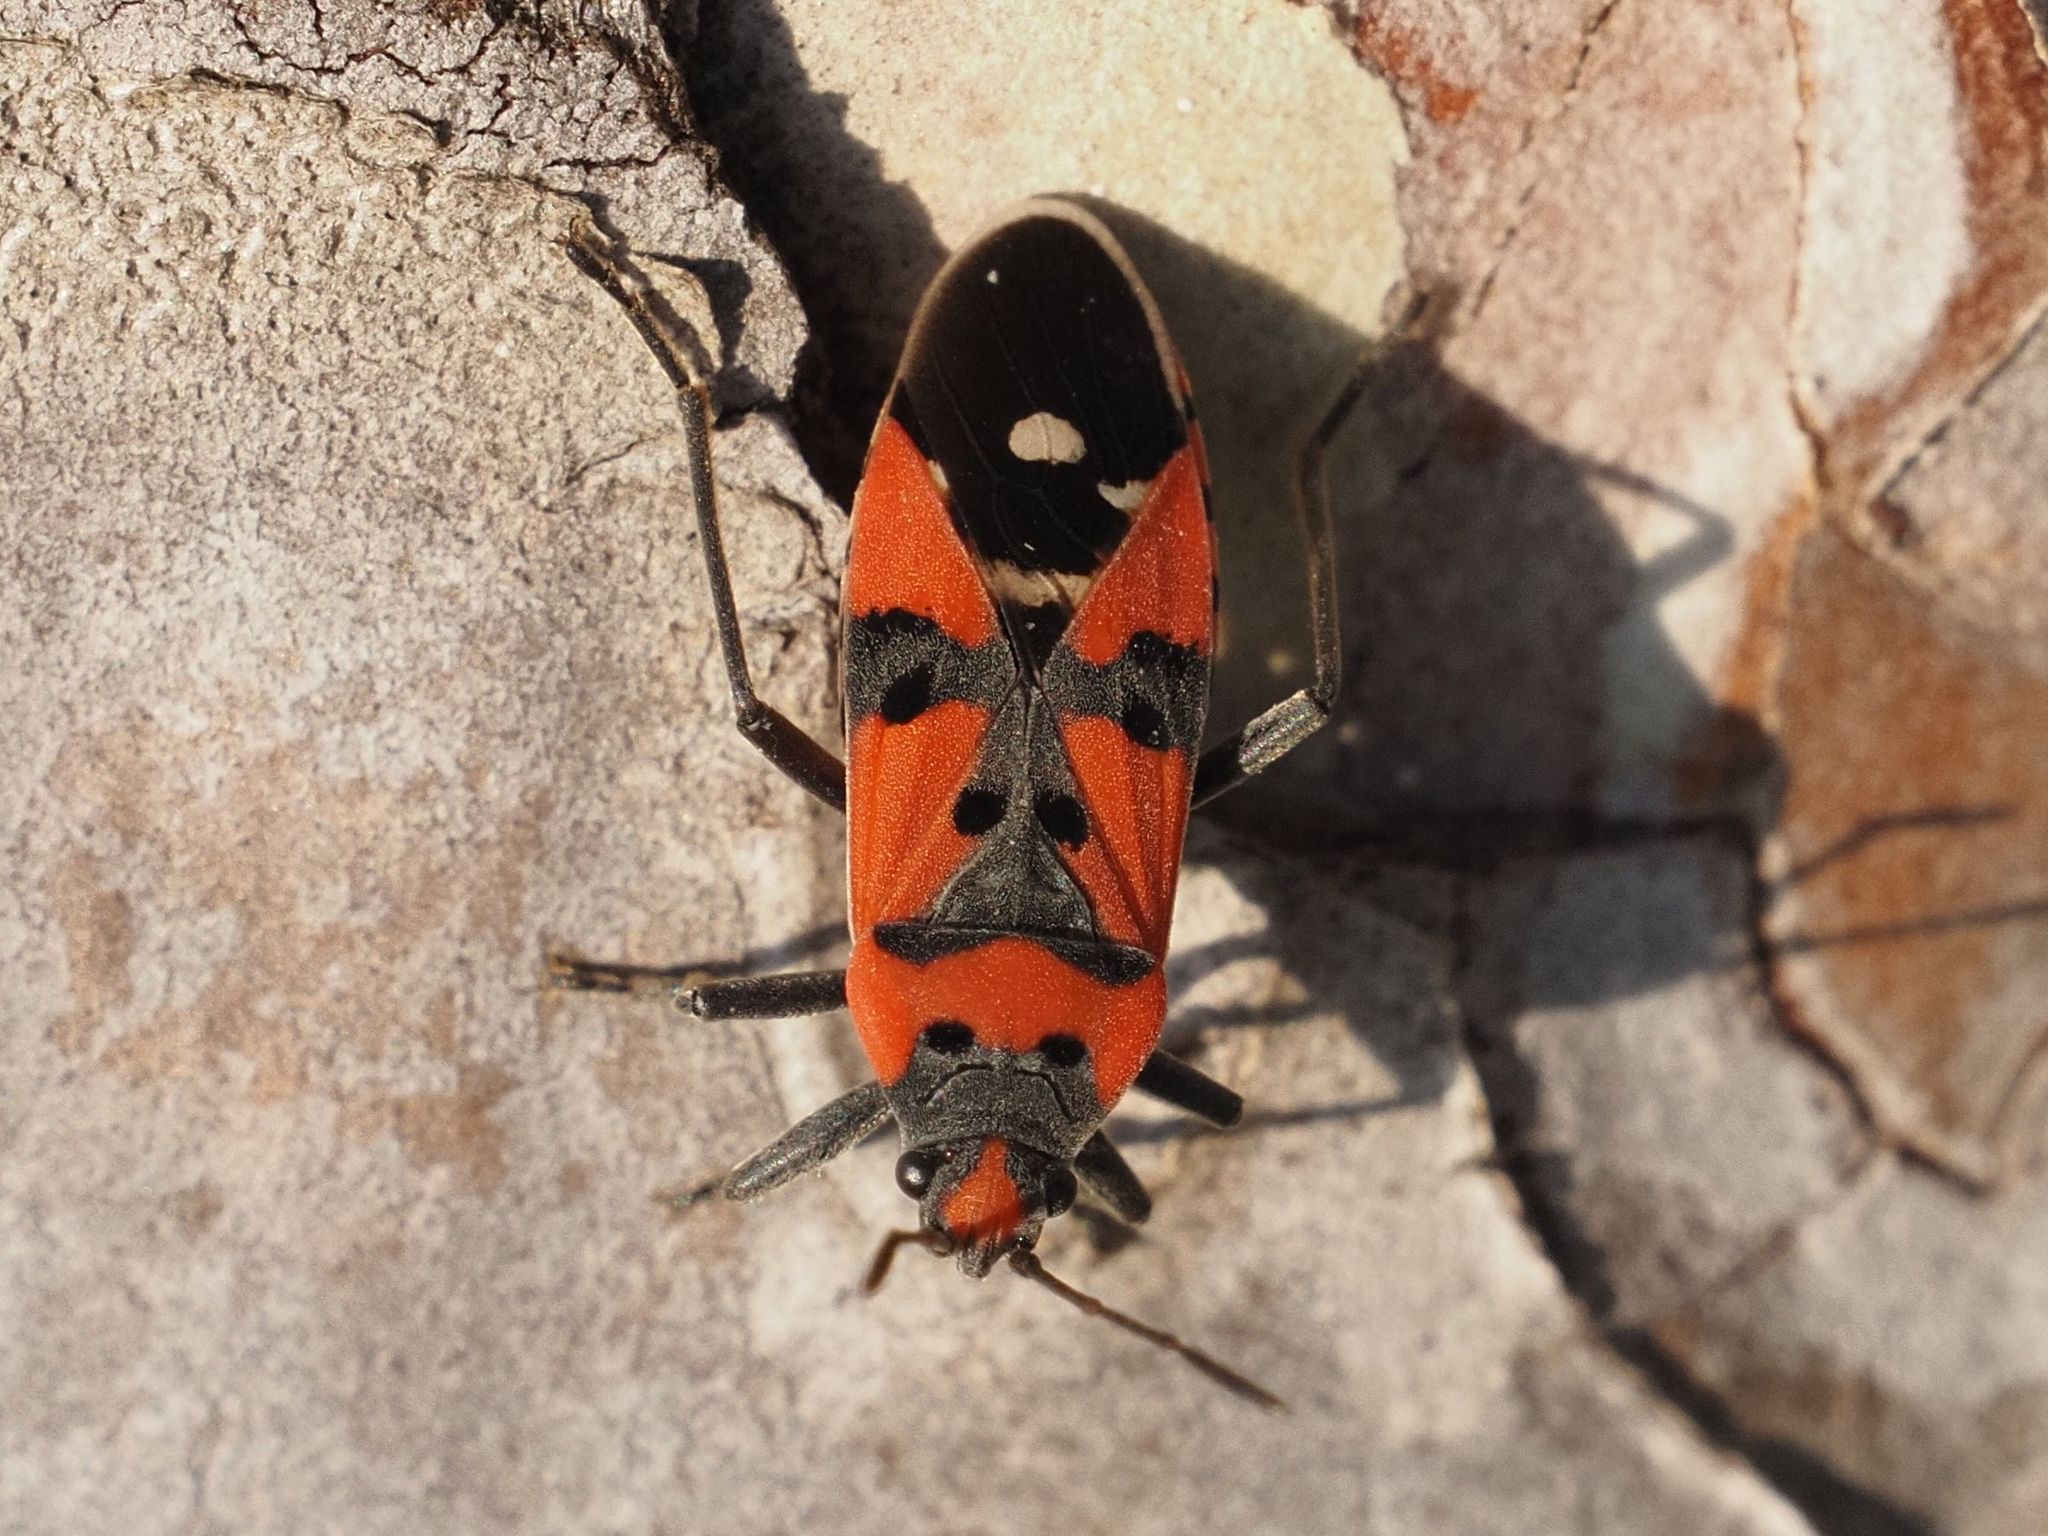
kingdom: Animalia
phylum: Arthropoda
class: Insecta
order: Hemiptera
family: Lygaeidae
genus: Lygaeus
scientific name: Lygaeus equestris
